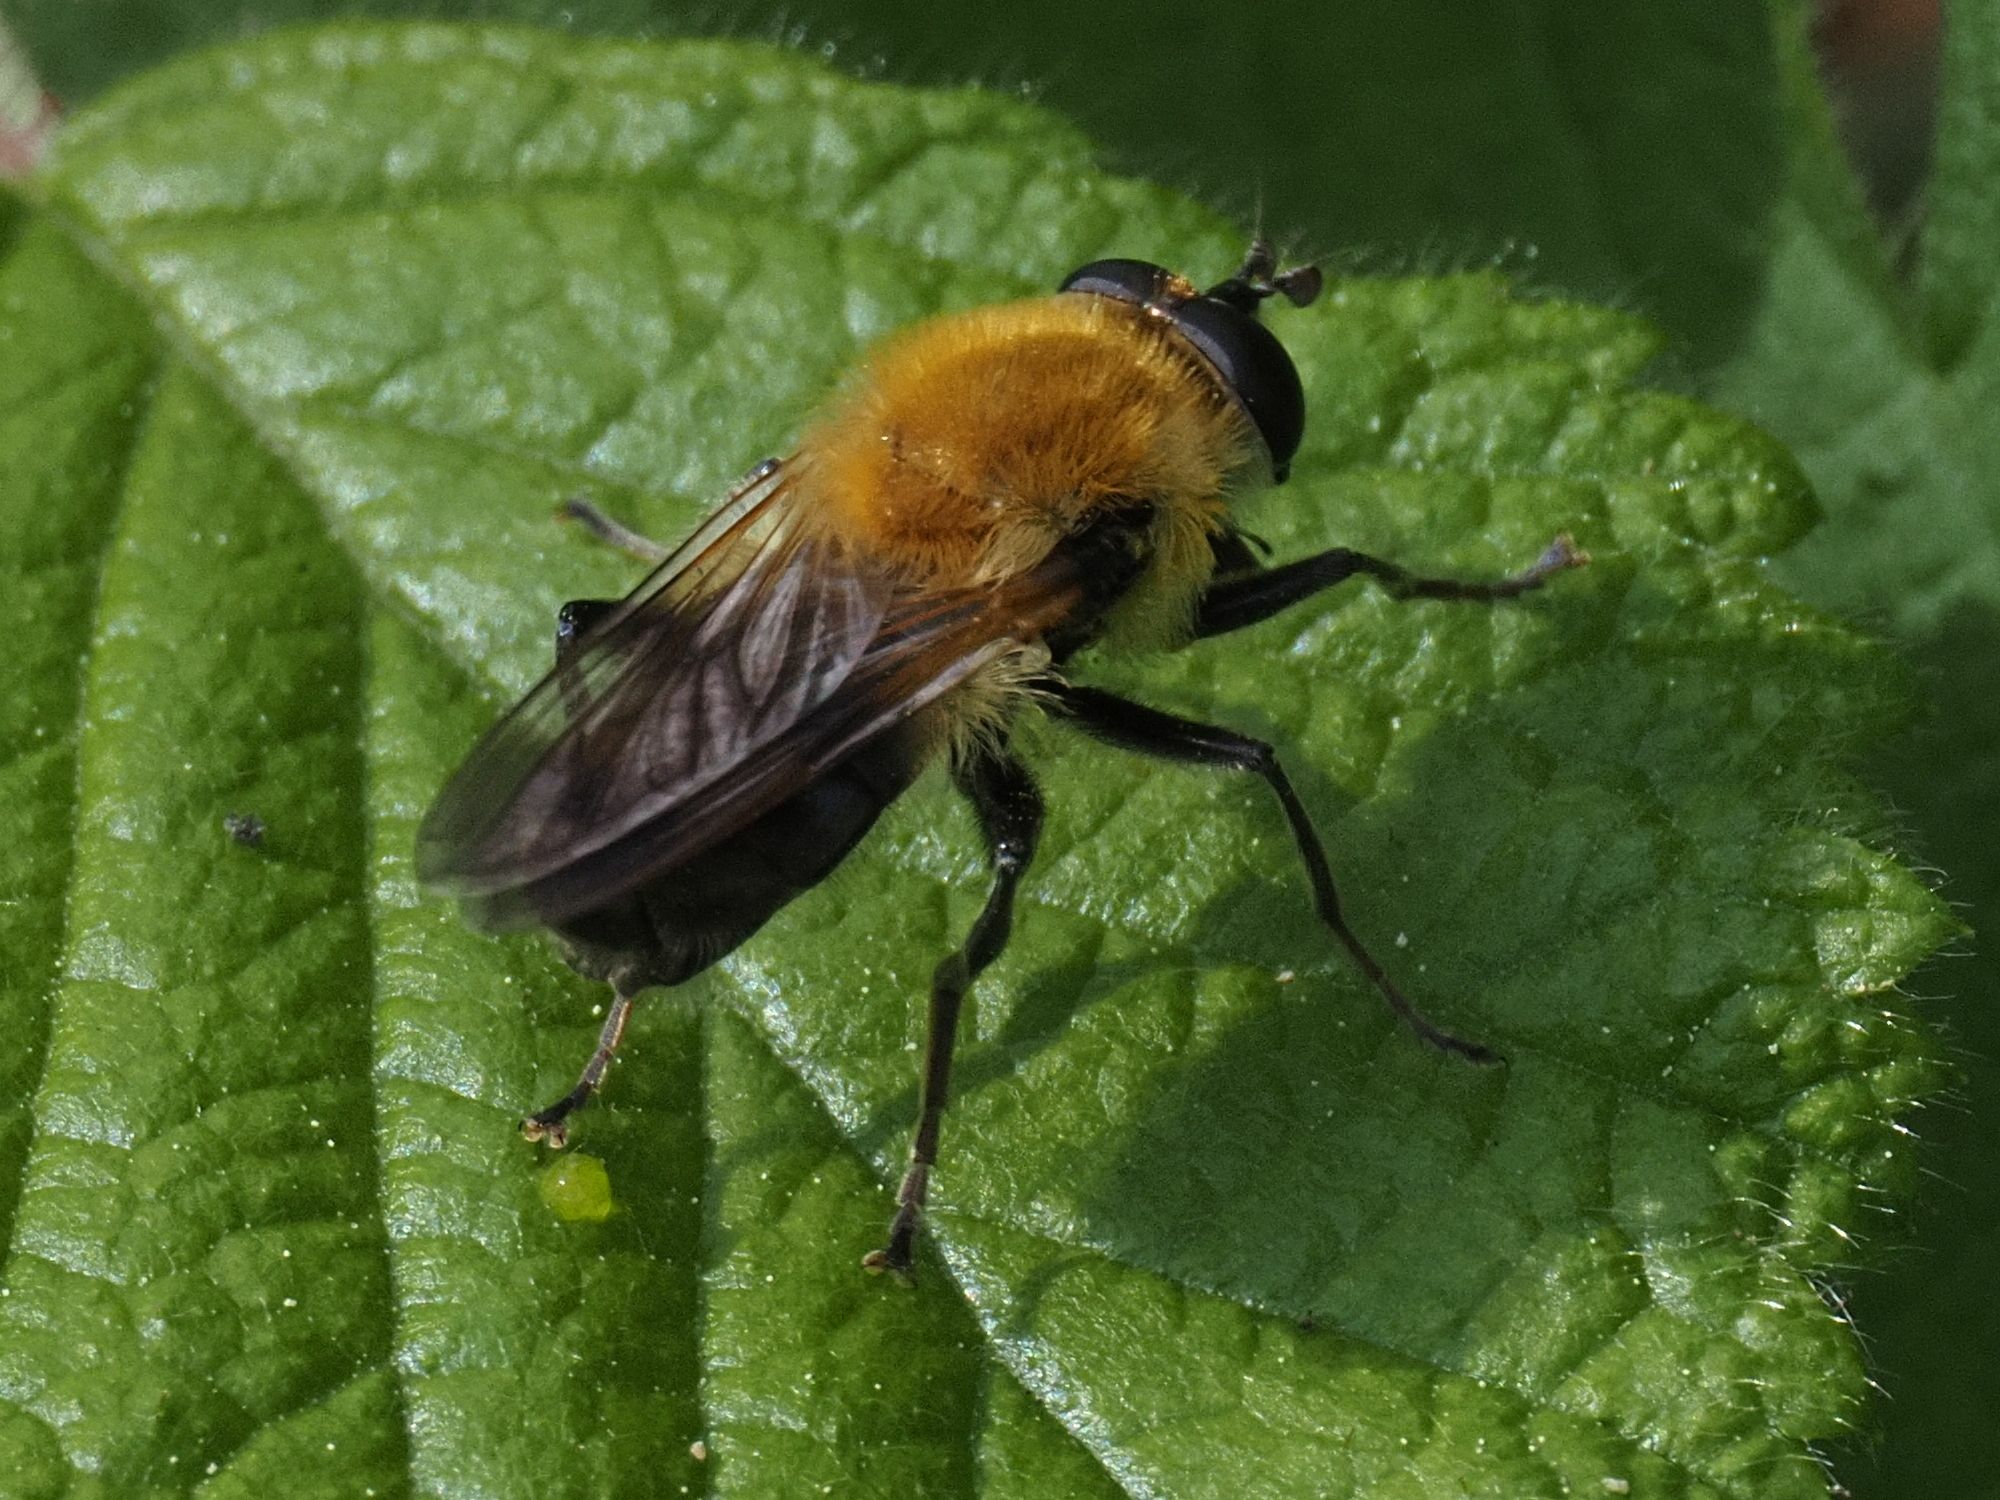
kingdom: Animalia
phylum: Arthropoda
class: Insecta
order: Diptera
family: Syrphidae
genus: Criorhina
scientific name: Criorhina floccosa
